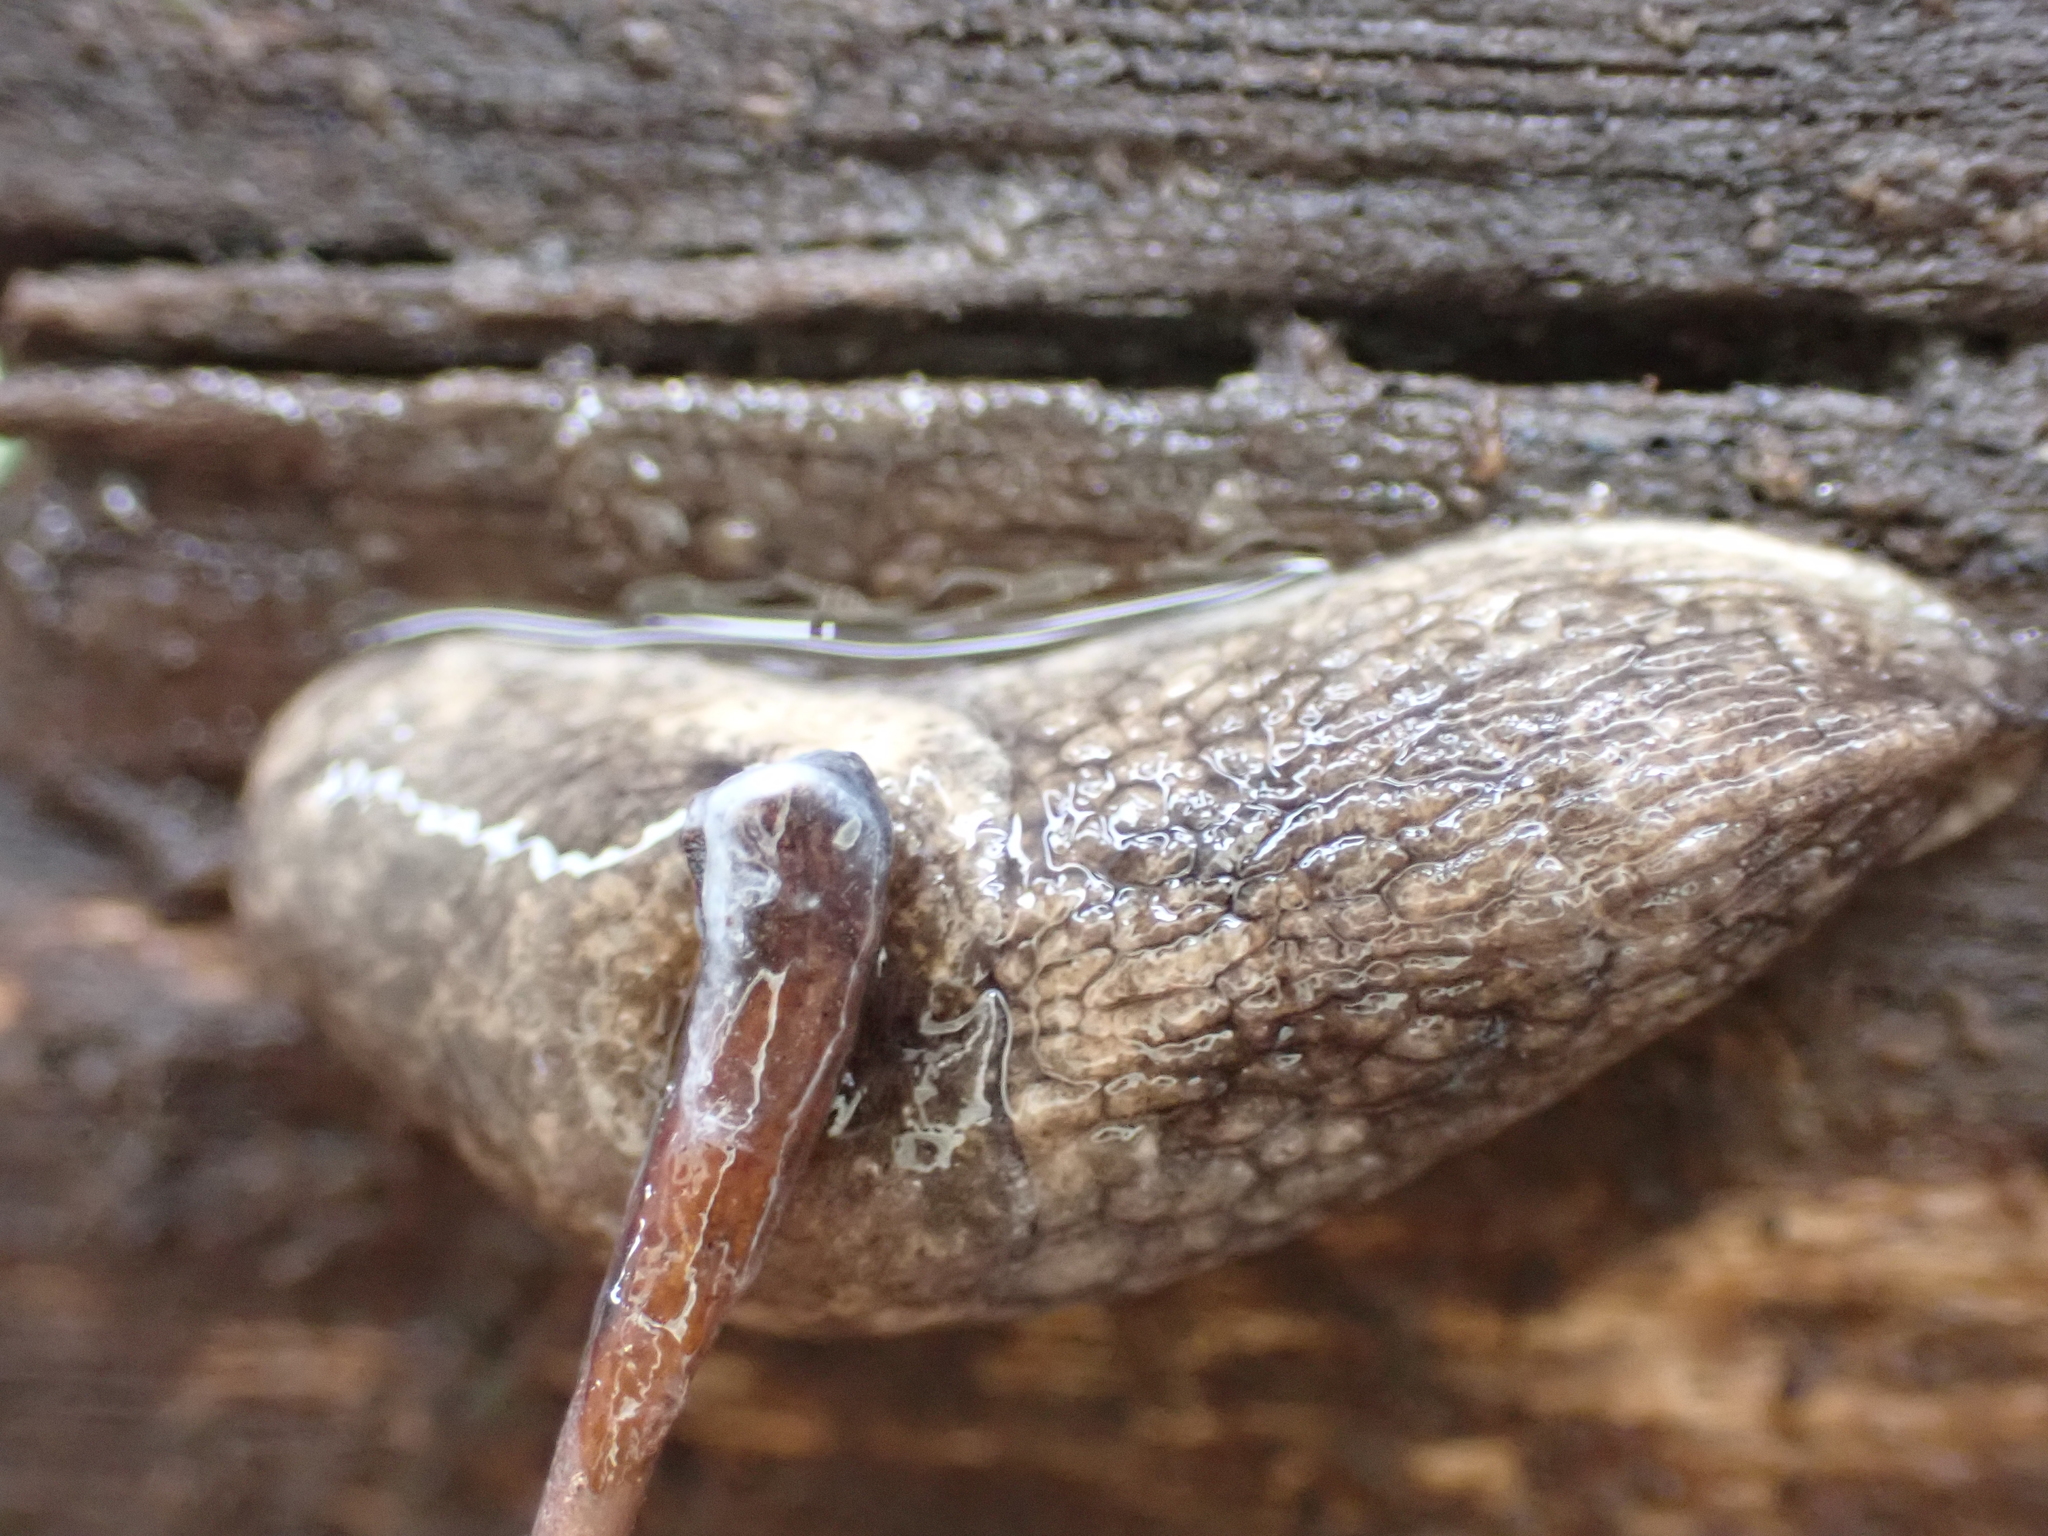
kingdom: Animalia
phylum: Mollusca
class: Gastropoda
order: Stylommatophora
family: Agriolimacidae
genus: Deroceras
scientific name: Deroceras reticulatum
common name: Gray field slug
